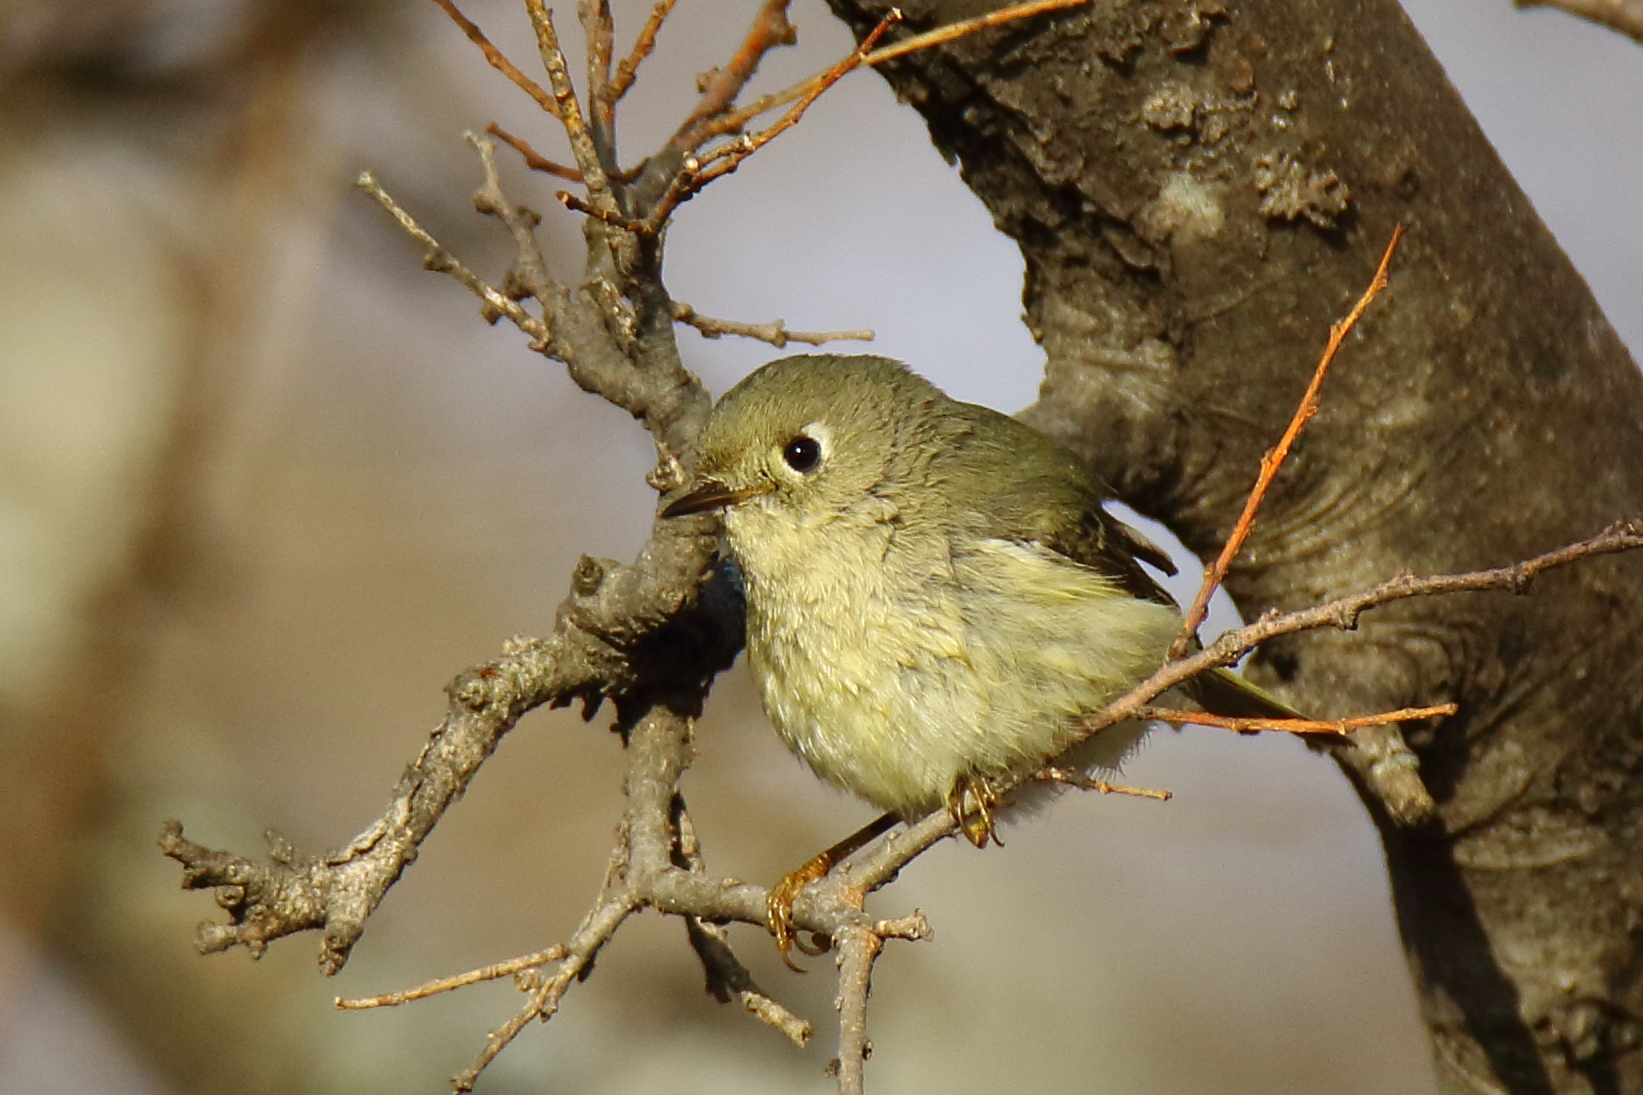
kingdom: Animalia
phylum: Chordata
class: Aves
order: Passeriformes
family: Regulidae
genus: Regulus
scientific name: Regulus calendula
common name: Ruby-crowned kinglet
